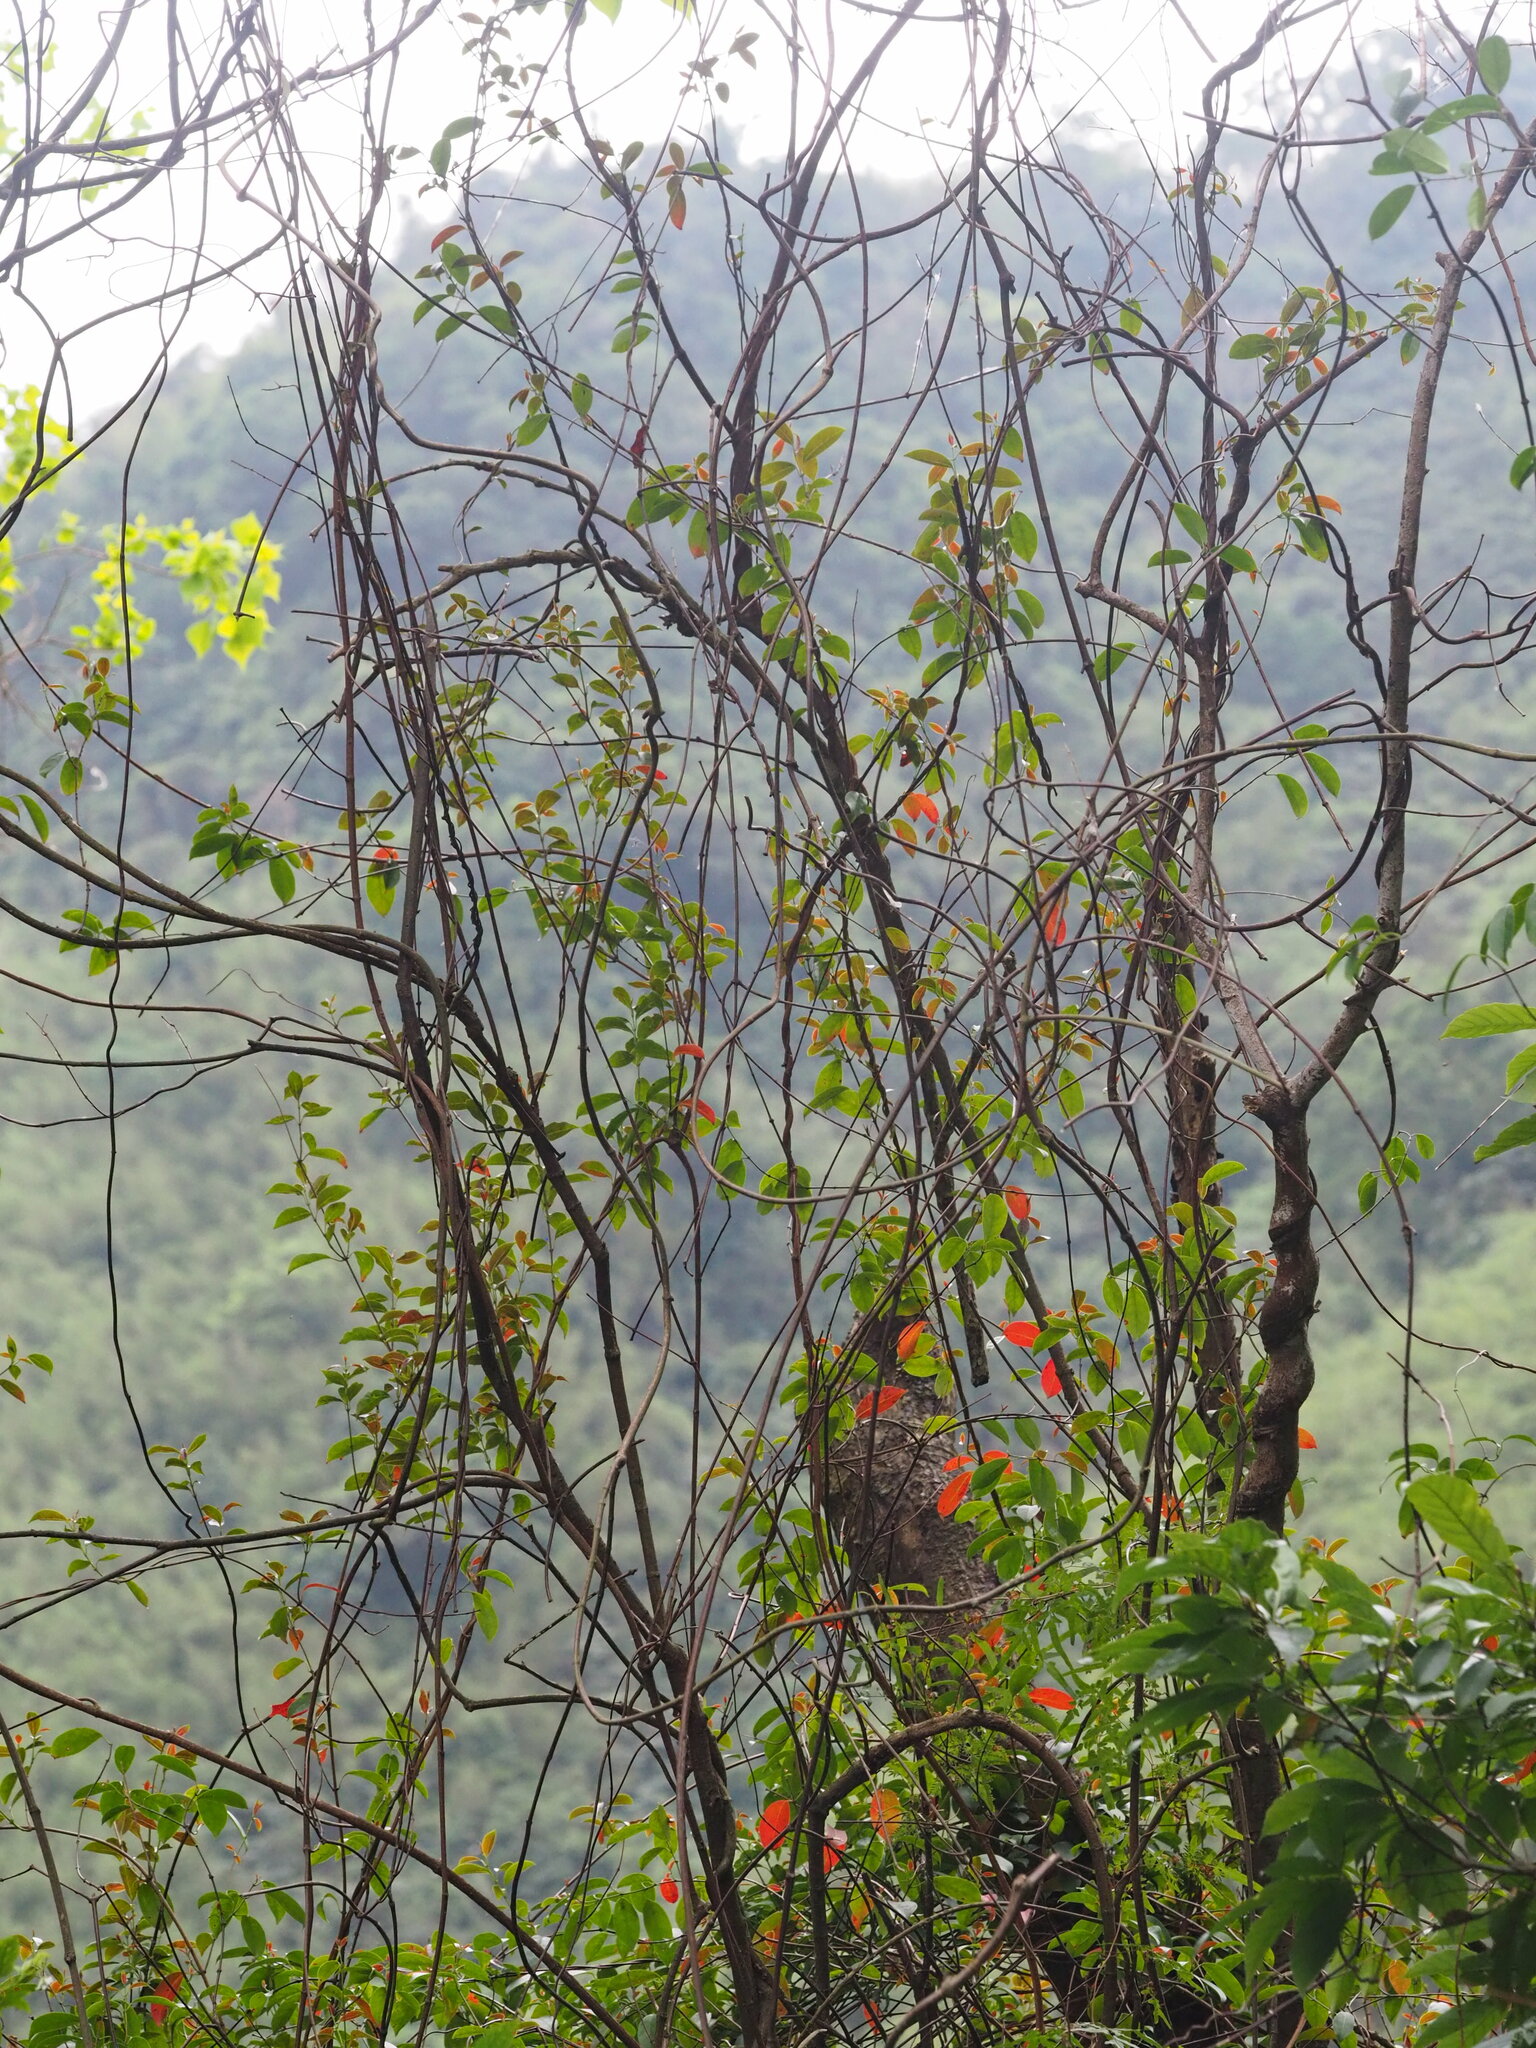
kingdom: Plantae
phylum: Tracheophyta
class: Magnoliopsida
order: Gentianales
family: Apocynaceae
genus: Urceola
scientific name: Urceola rosea
